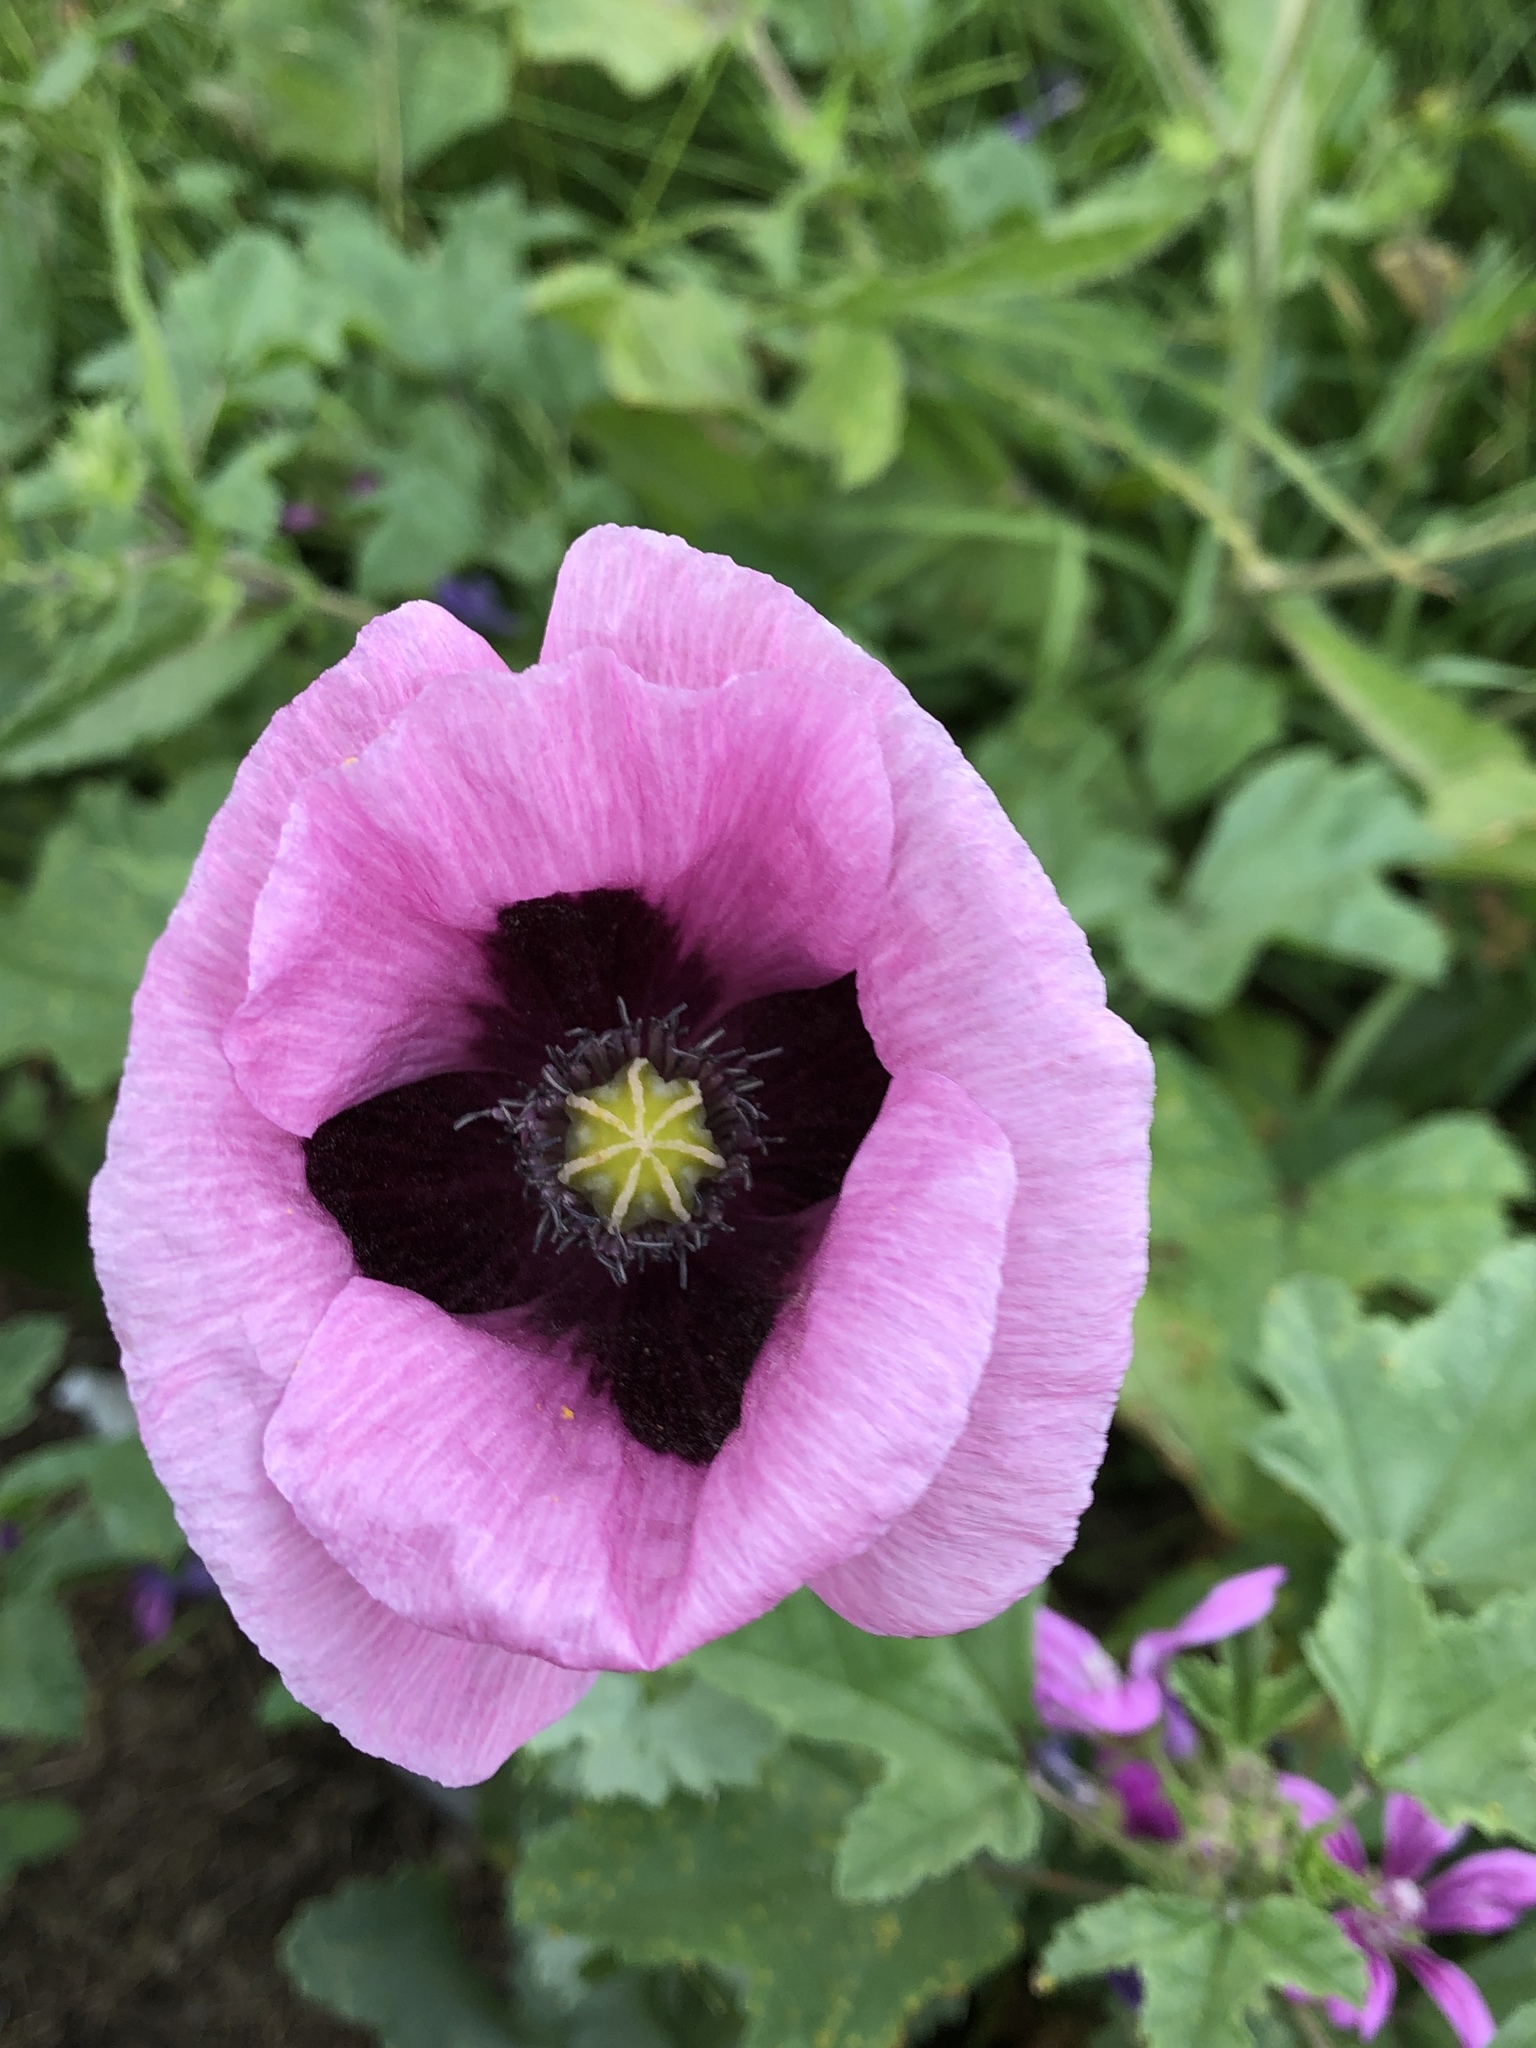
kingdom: Plantae
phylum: Tracheophyta
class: Magnoliopsida
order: Ranunculales
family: Papaveraceae
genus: Papaver
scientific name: Papaver somniferum
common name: Opium poppy
